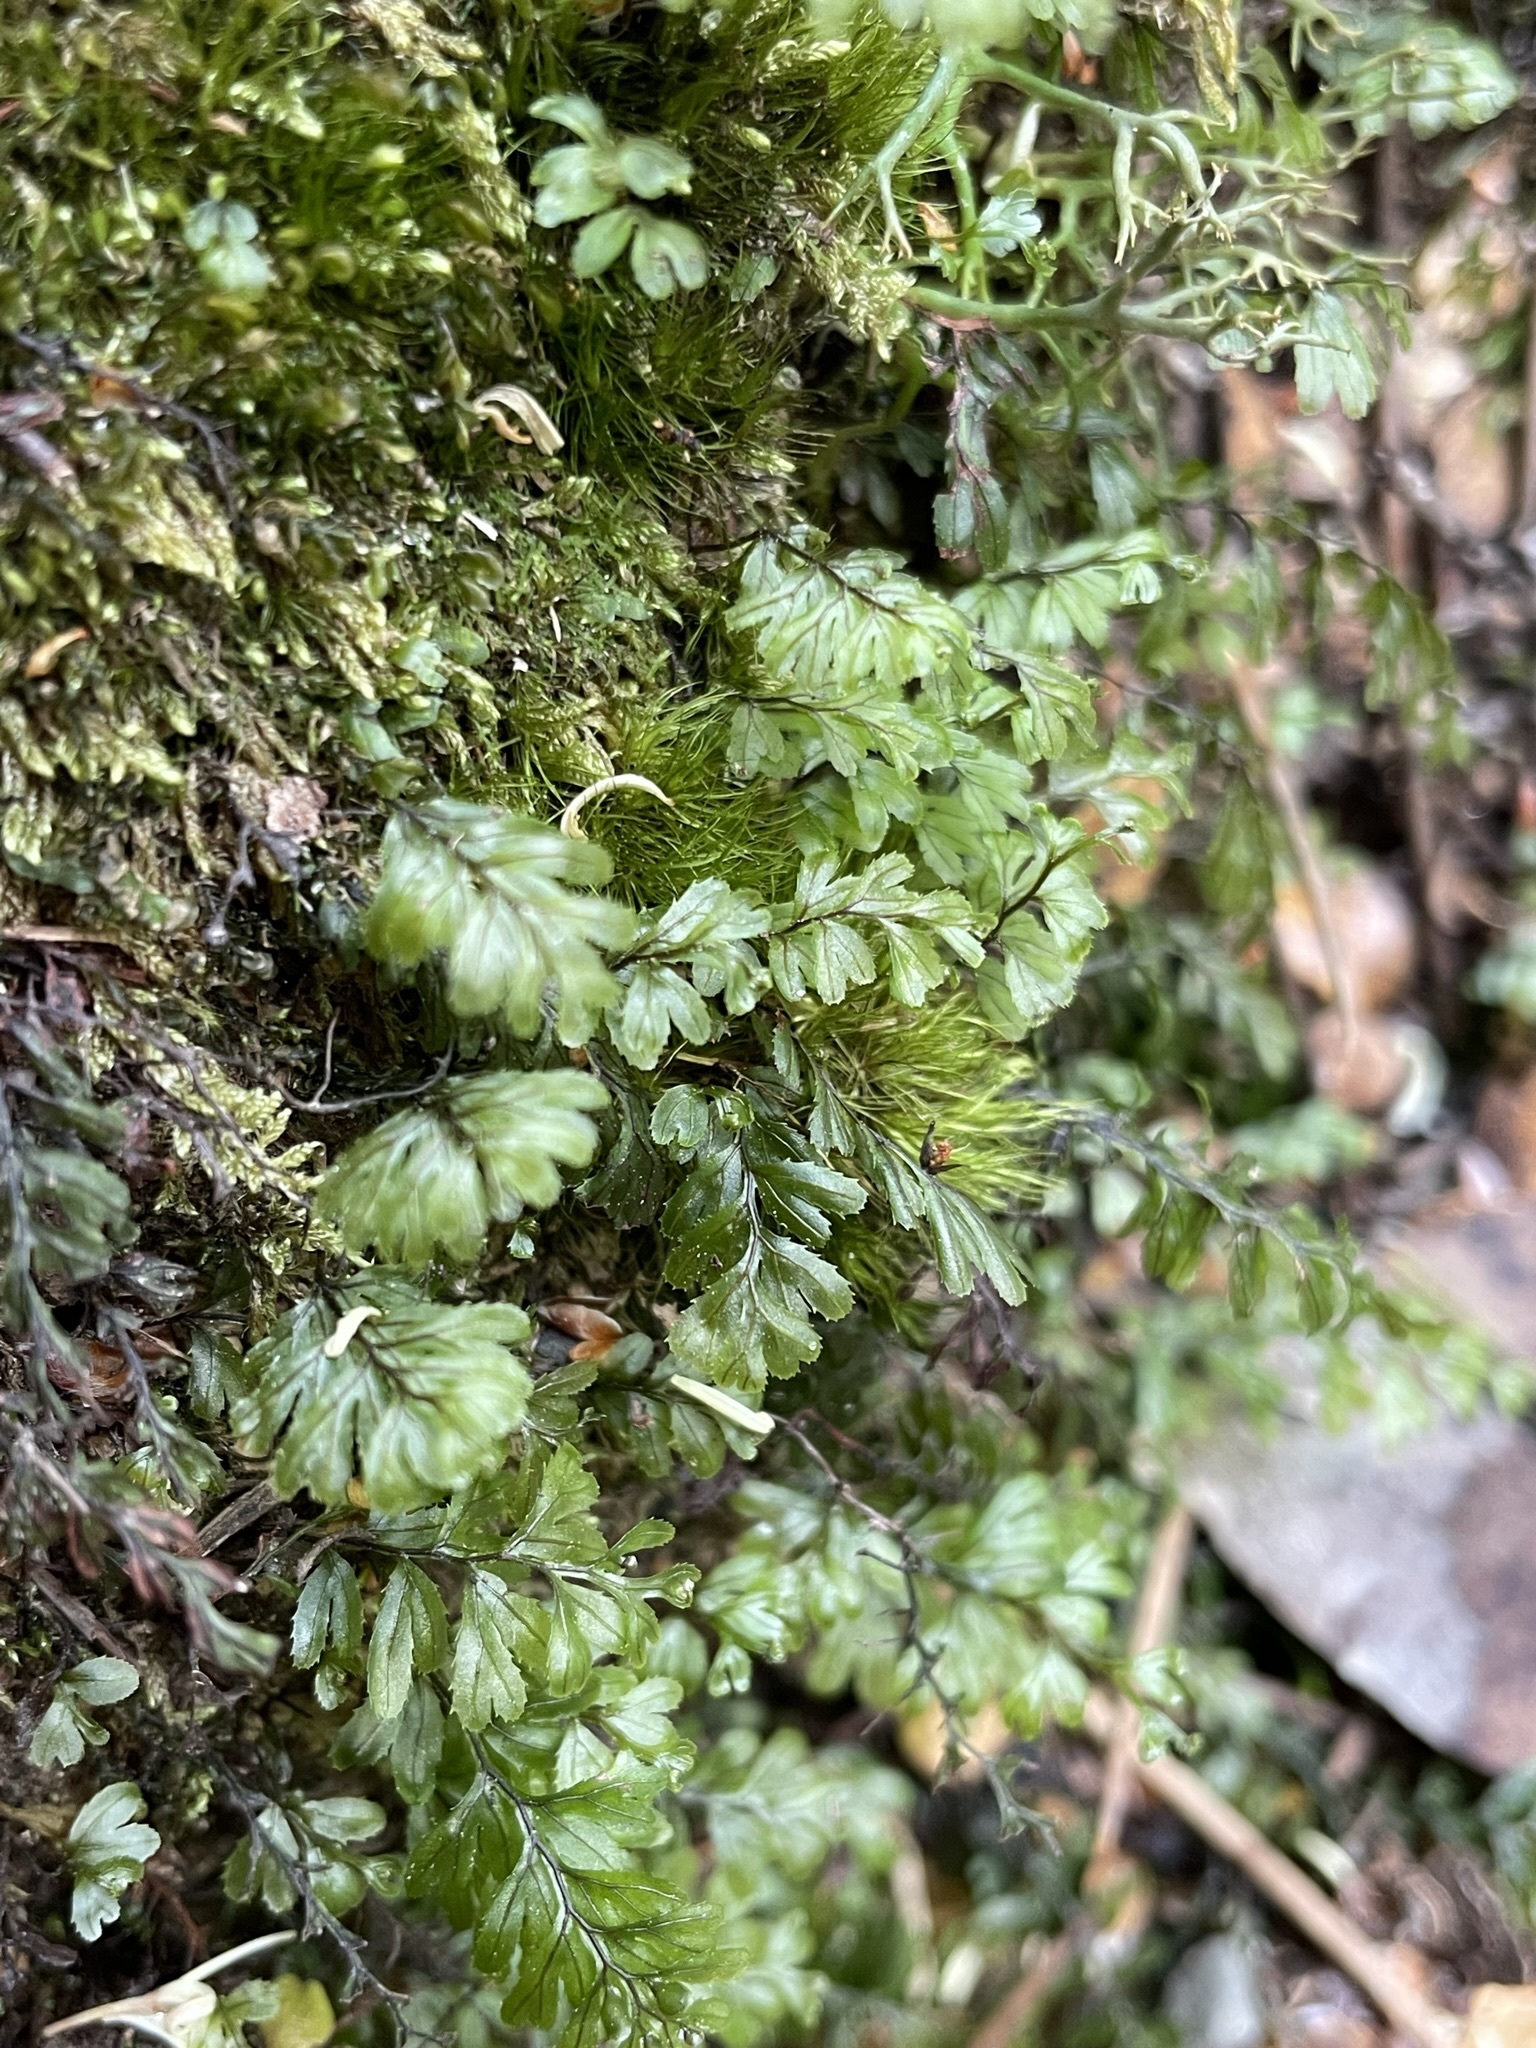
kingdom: Plantae
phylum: Tracheophyta
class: Polypodiopsida
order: Hymenophyllales
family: Hymenophyllaceae
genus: Hymenophyllum
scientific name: Hymenophyllum peltatum
